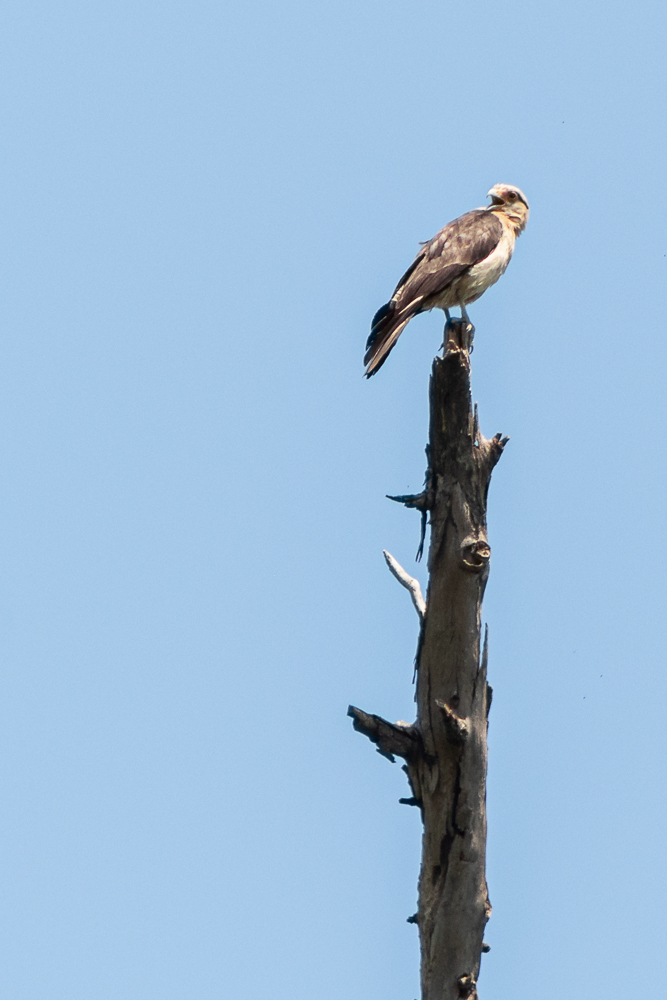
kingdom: Animalia
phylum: Chordata
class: Aves
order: Falconiformes
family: Falconidae
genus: Daptrius
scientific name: Daptrius
